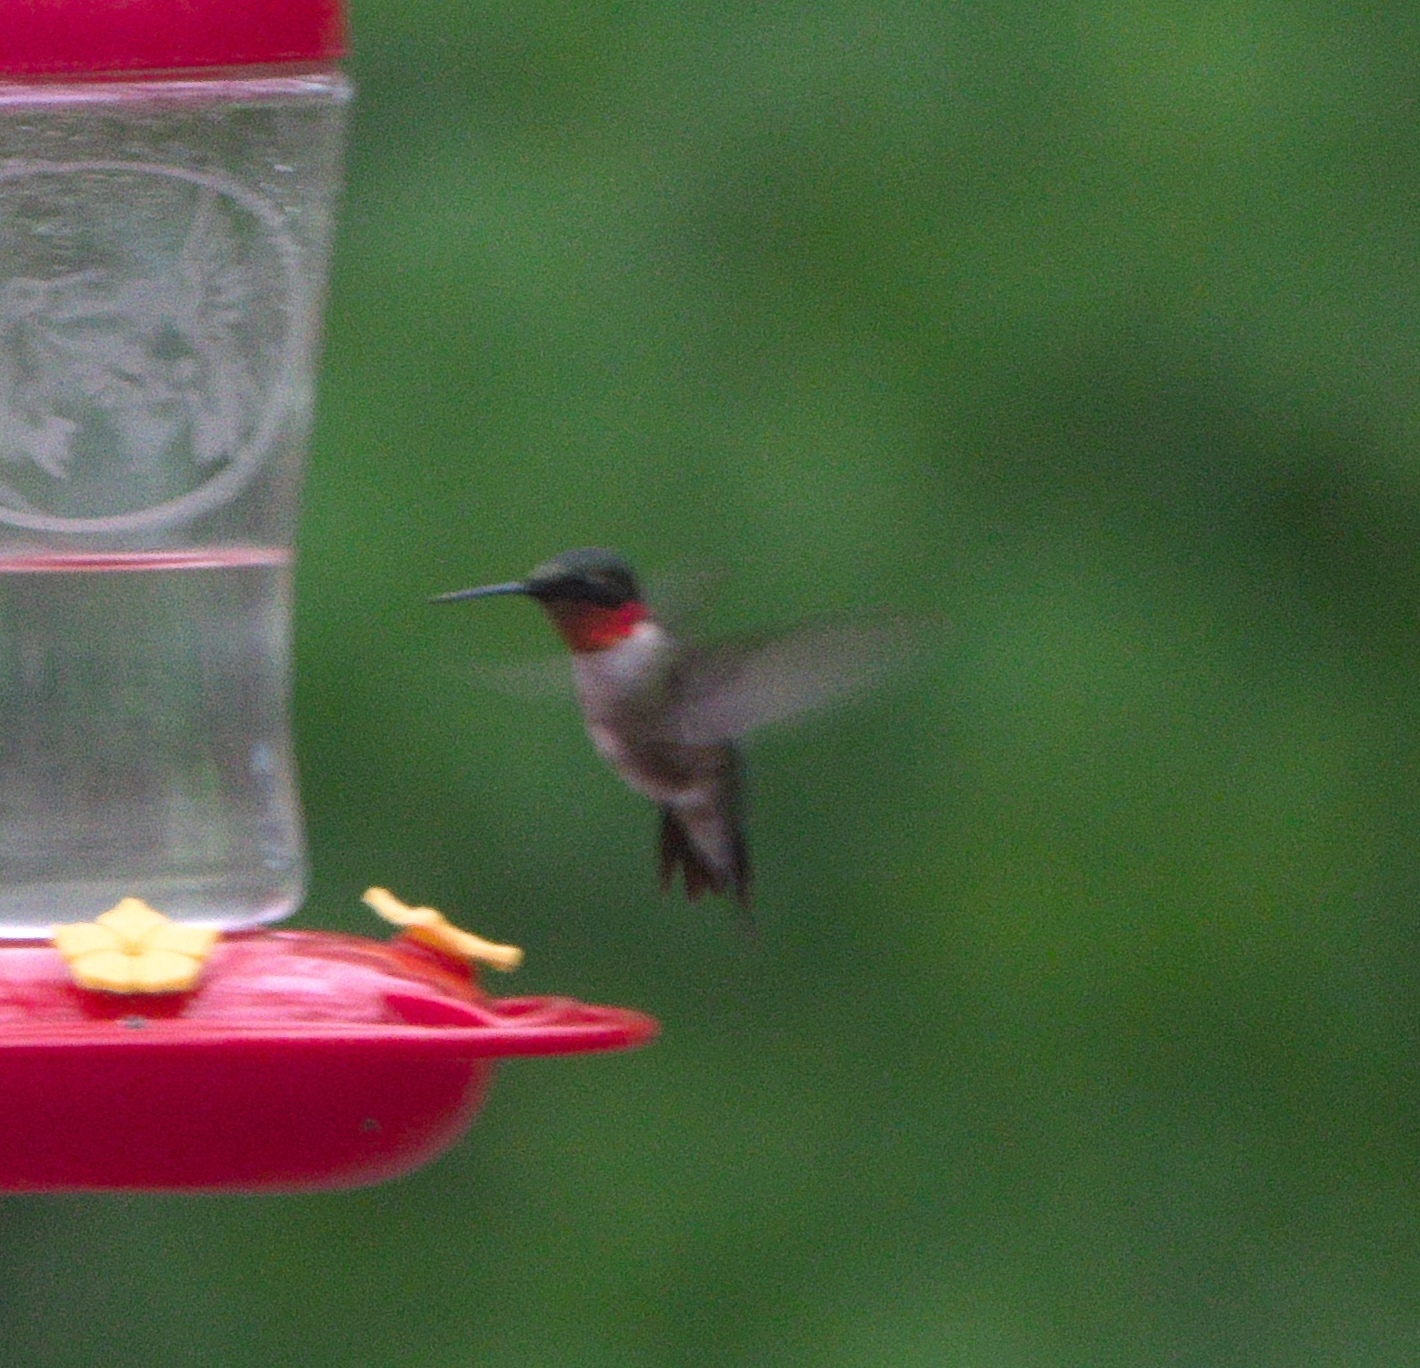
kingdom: Animalia
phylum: Chordata
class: Aves
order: Apodiformes
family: Trochilidae
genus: Archilochus
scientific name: Archilochus colubris
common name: Ruby-throated hummingbird
